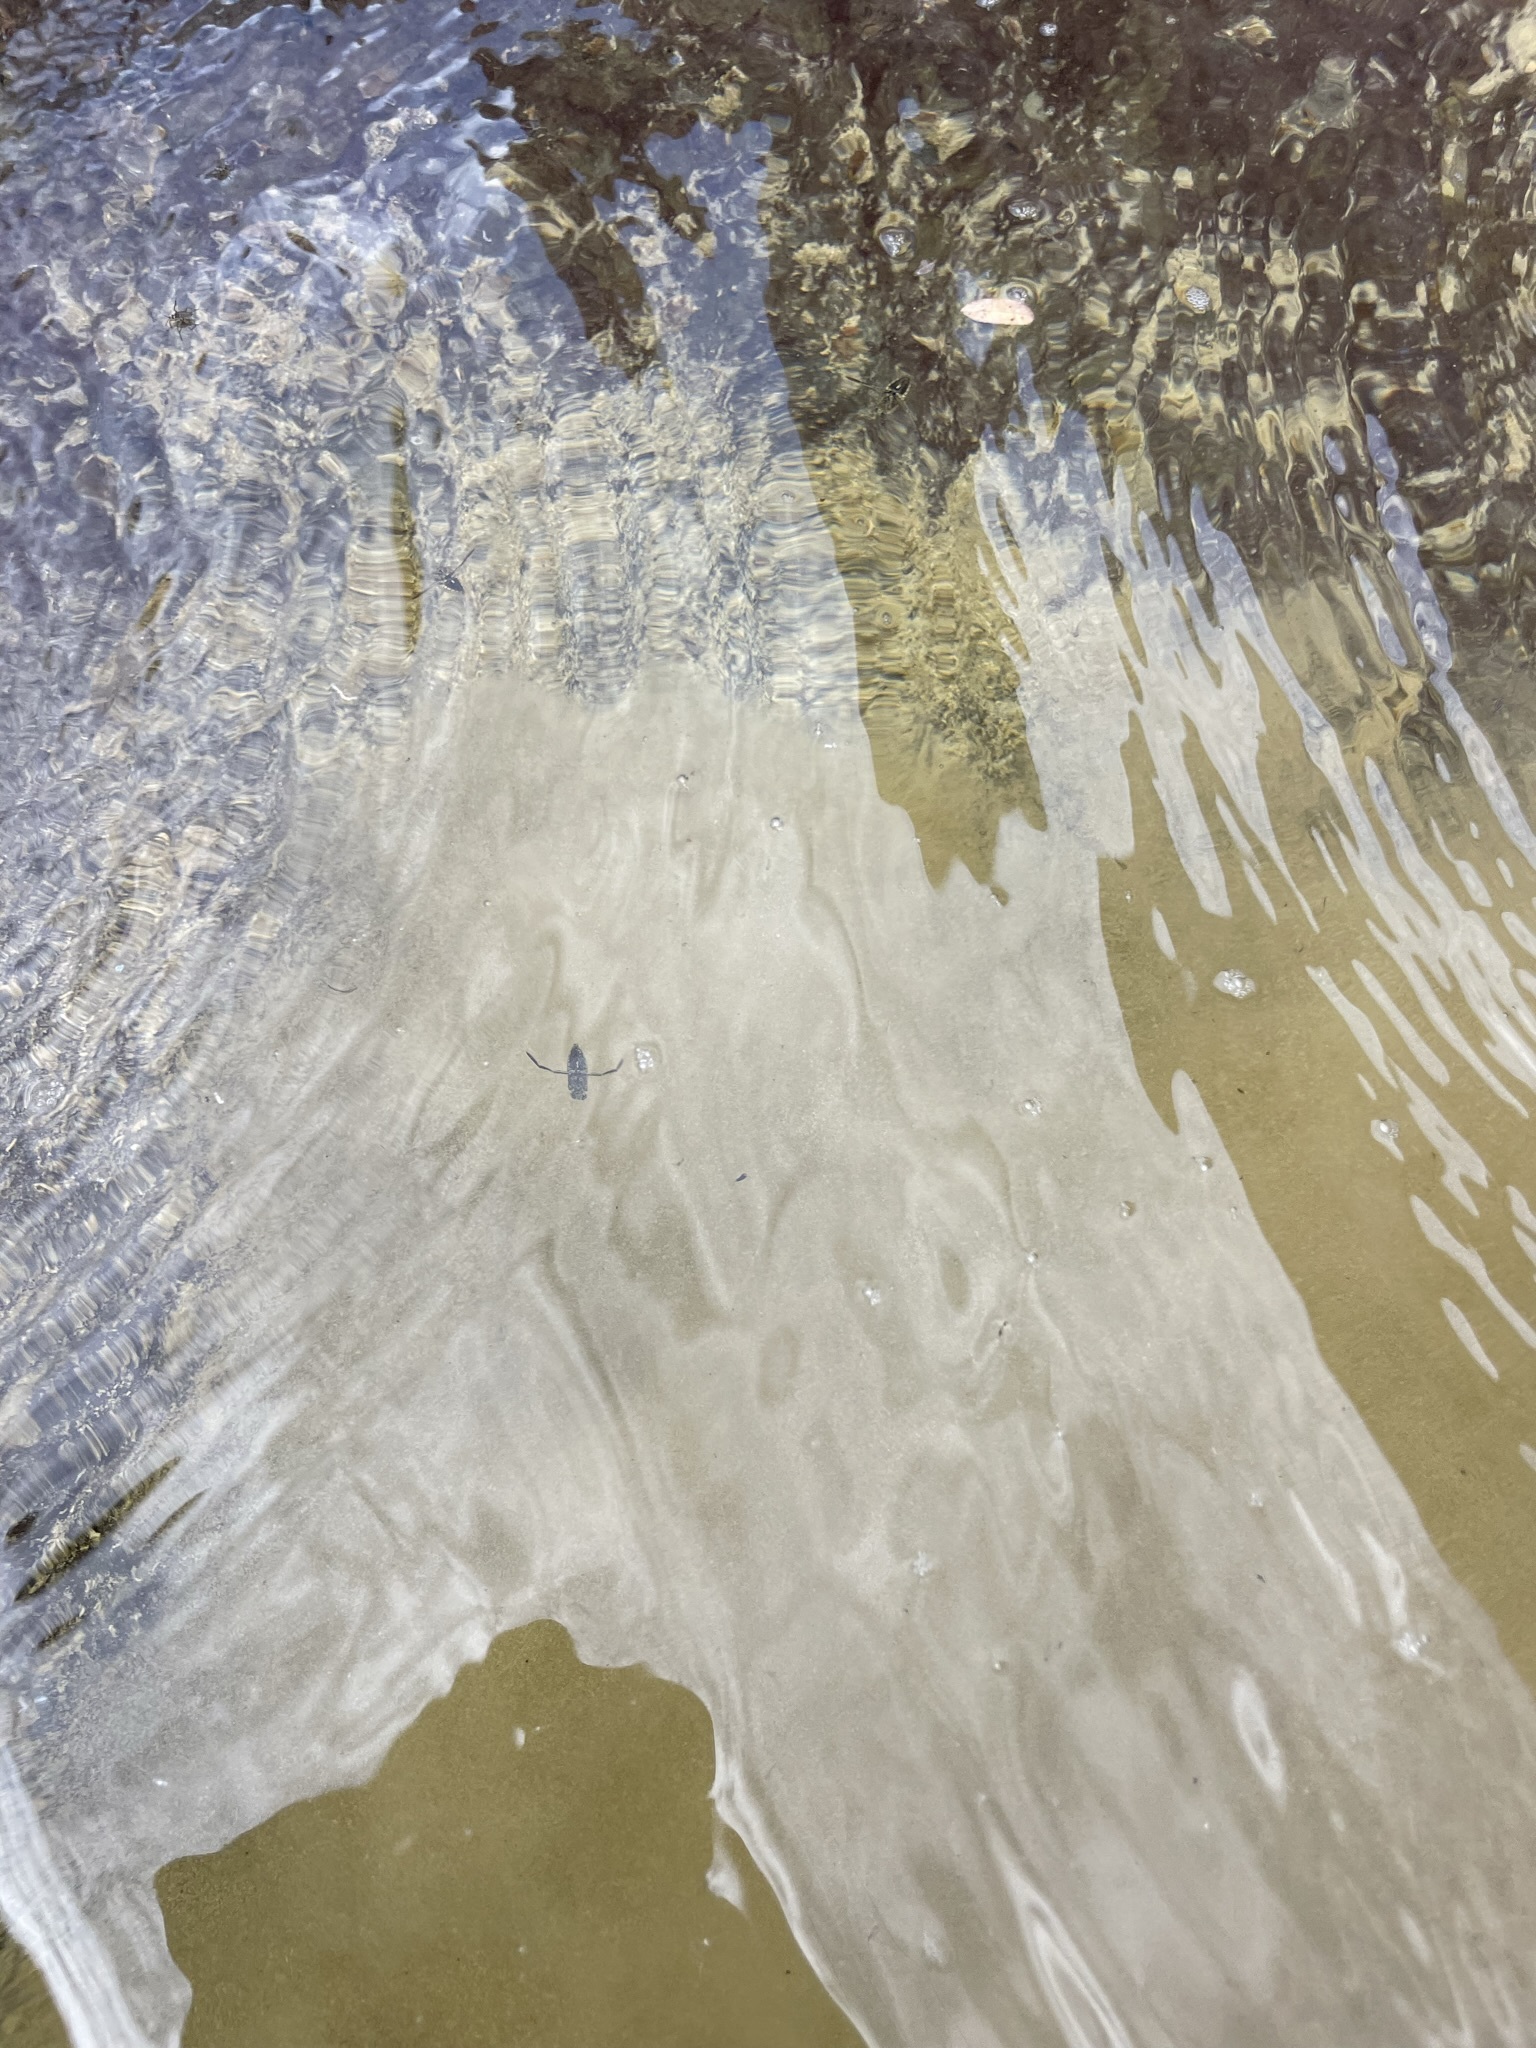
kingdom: Animalia
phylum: Arthropoda
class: Insecta
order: Hemiptera
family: Notonectidae
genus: Notonecta
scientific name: Notonecta
